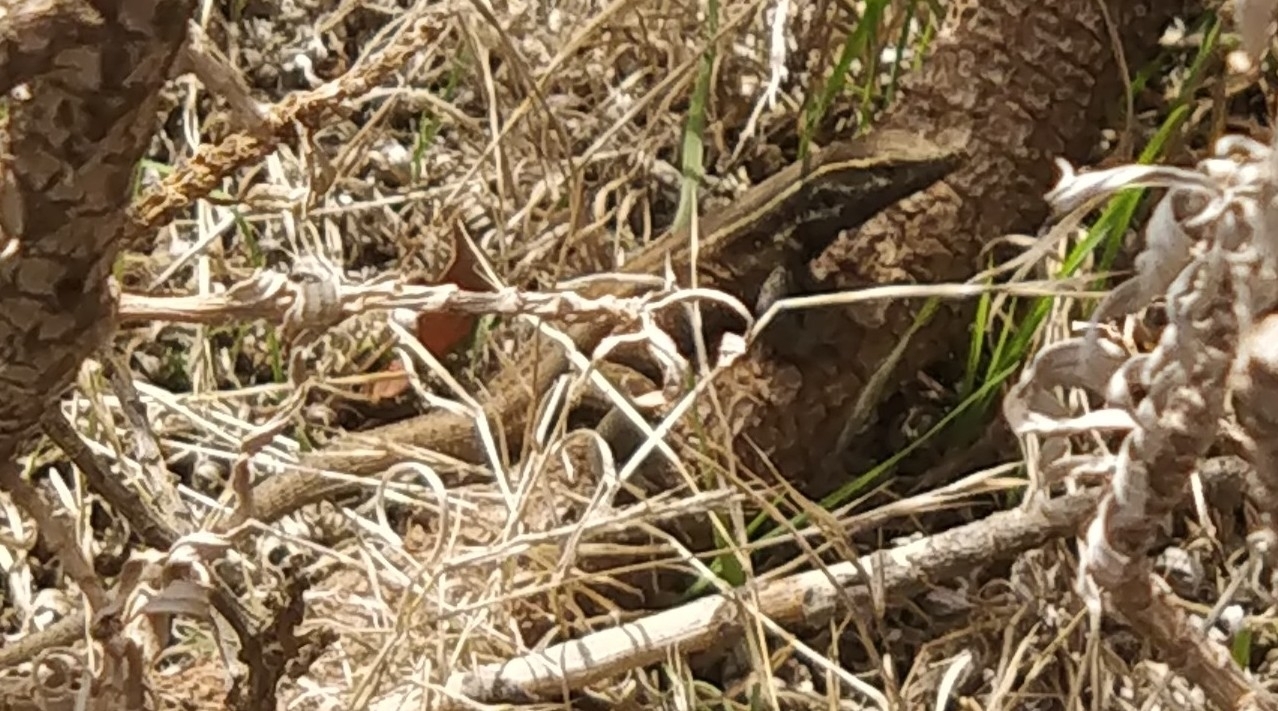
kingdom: Animalia
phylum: Chordata
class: Squamata
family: Lacertidae
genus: Gallotia
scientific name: Gallotia caesaris
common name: Boettger's lizard
